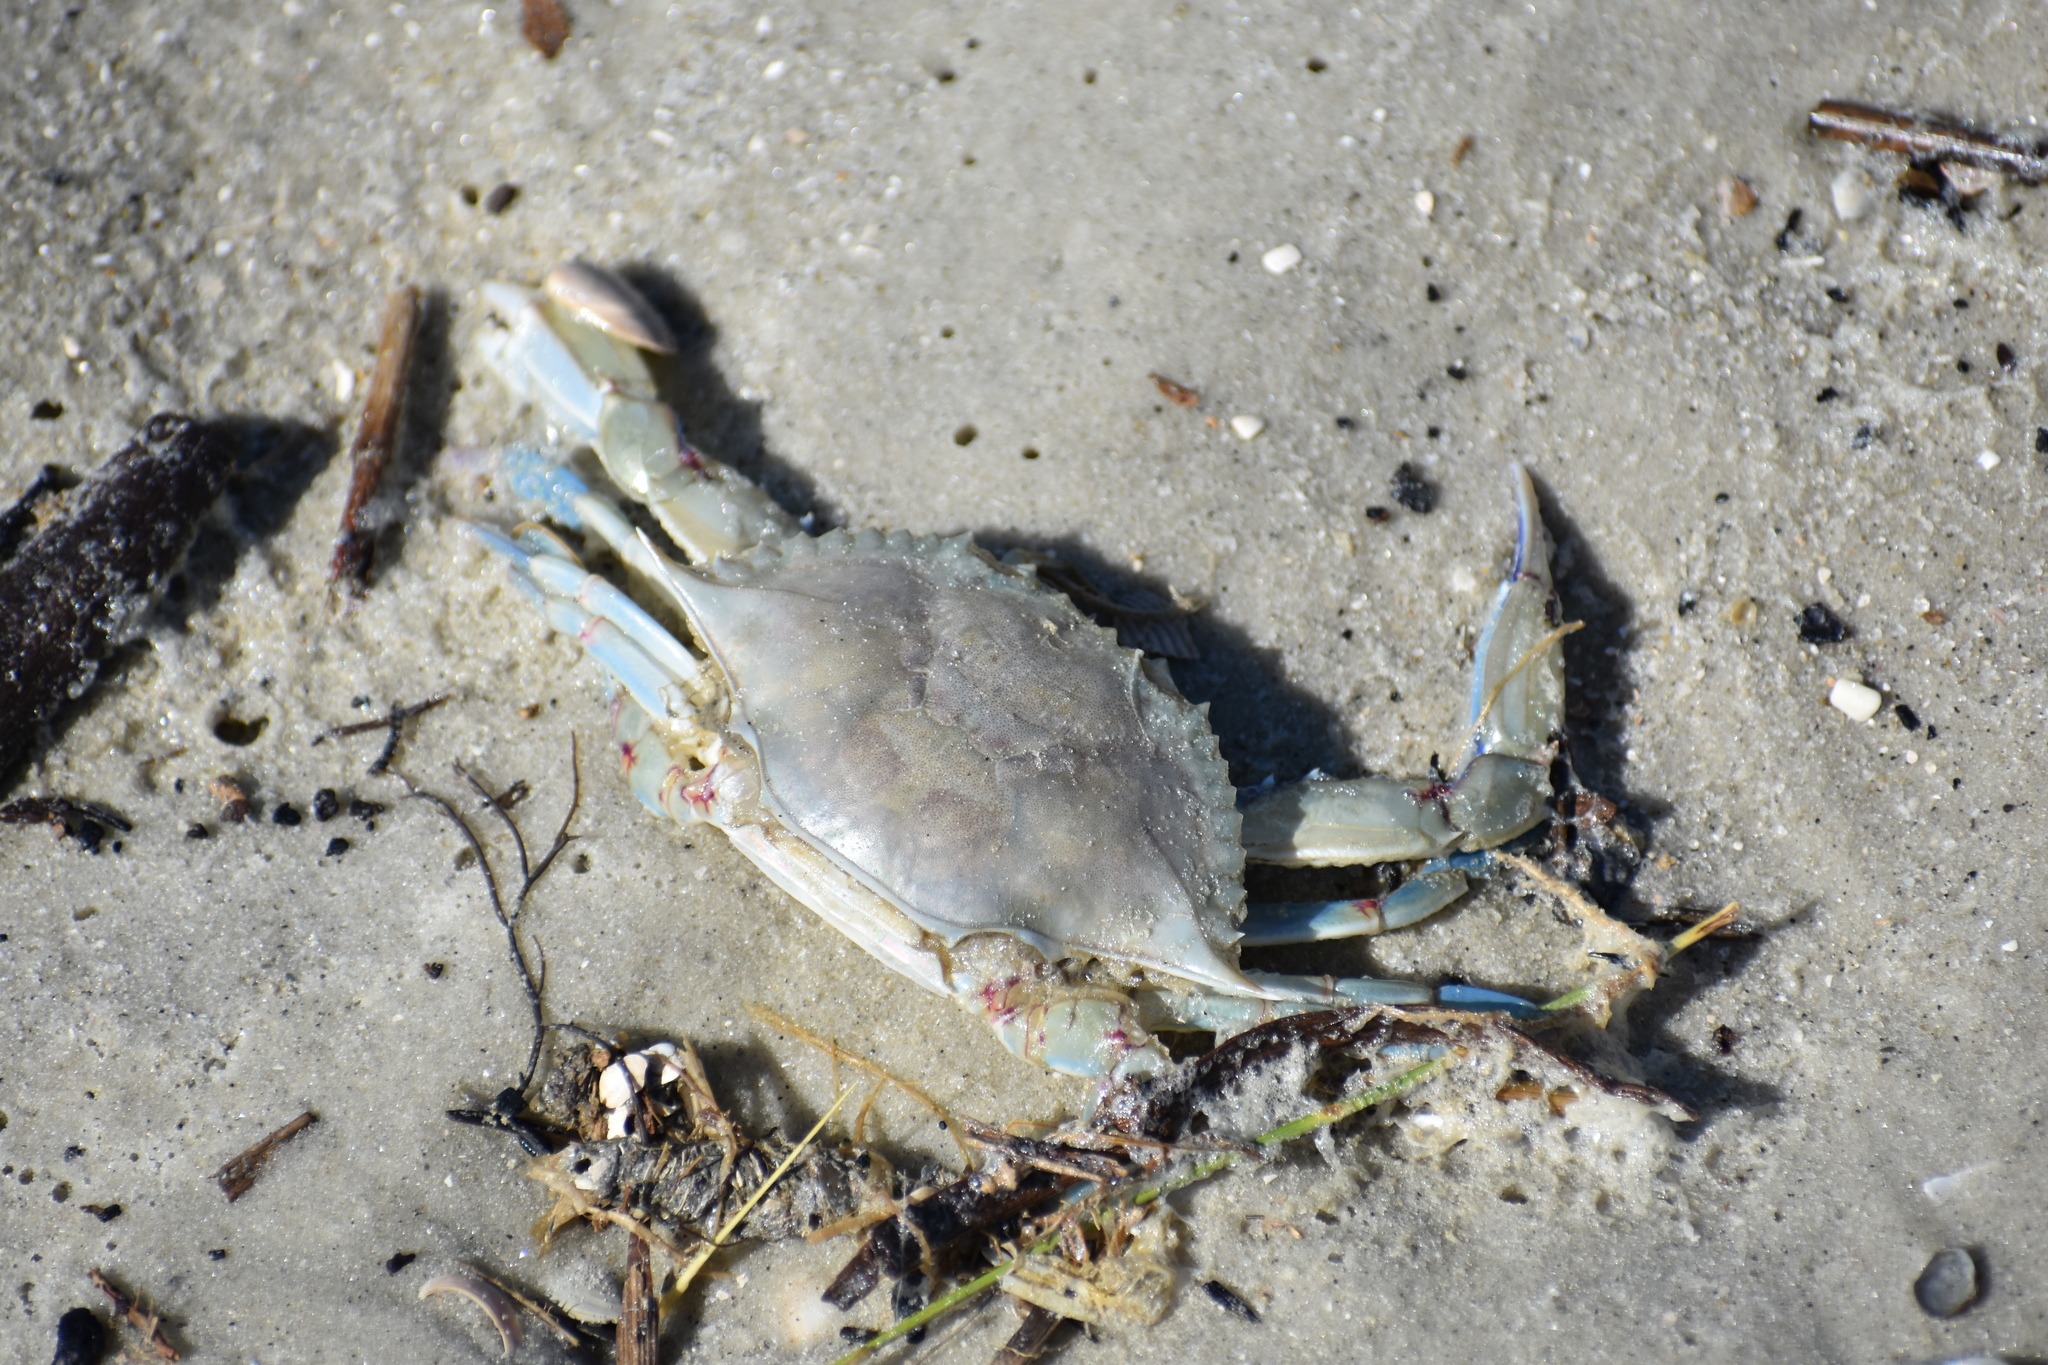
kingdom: Animalia
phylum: Arthropoda
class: Malacostraca
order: Decapoda
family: Portunidae
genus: Callinectes
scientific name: Callinectes sapidus
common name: Blue crab
